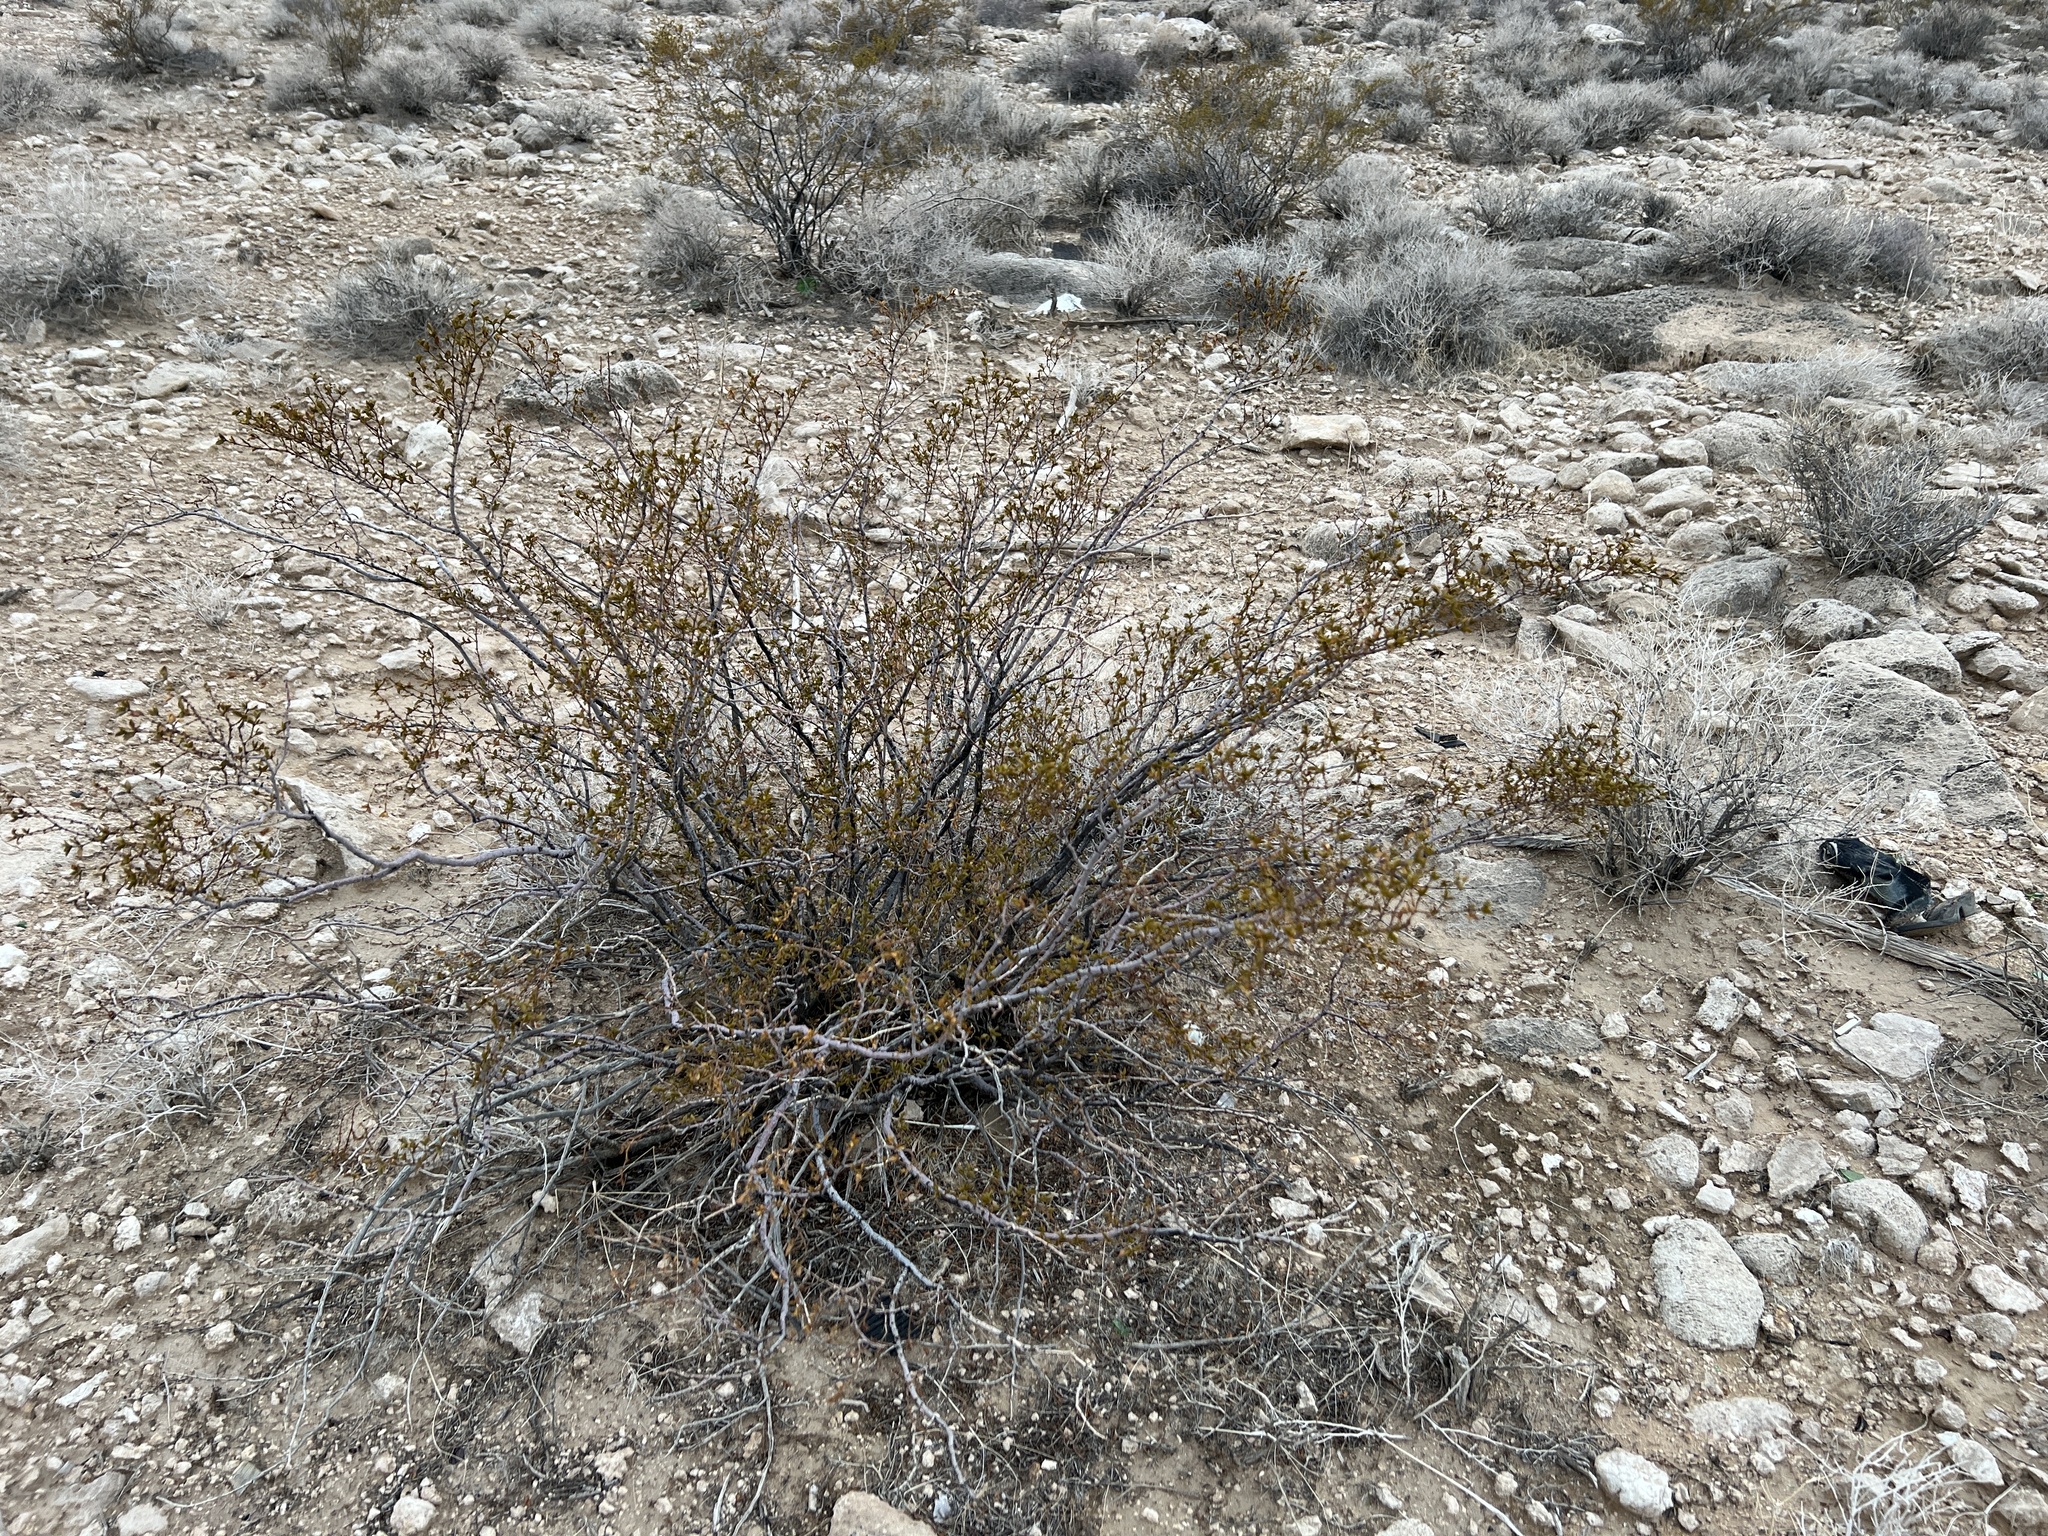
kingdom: Plantae
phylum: Tracheophyta
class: Magnoliopsida
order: Zygophyllales
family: Zygophyllaceae
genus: Larrea
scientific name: Larrea tridentata
